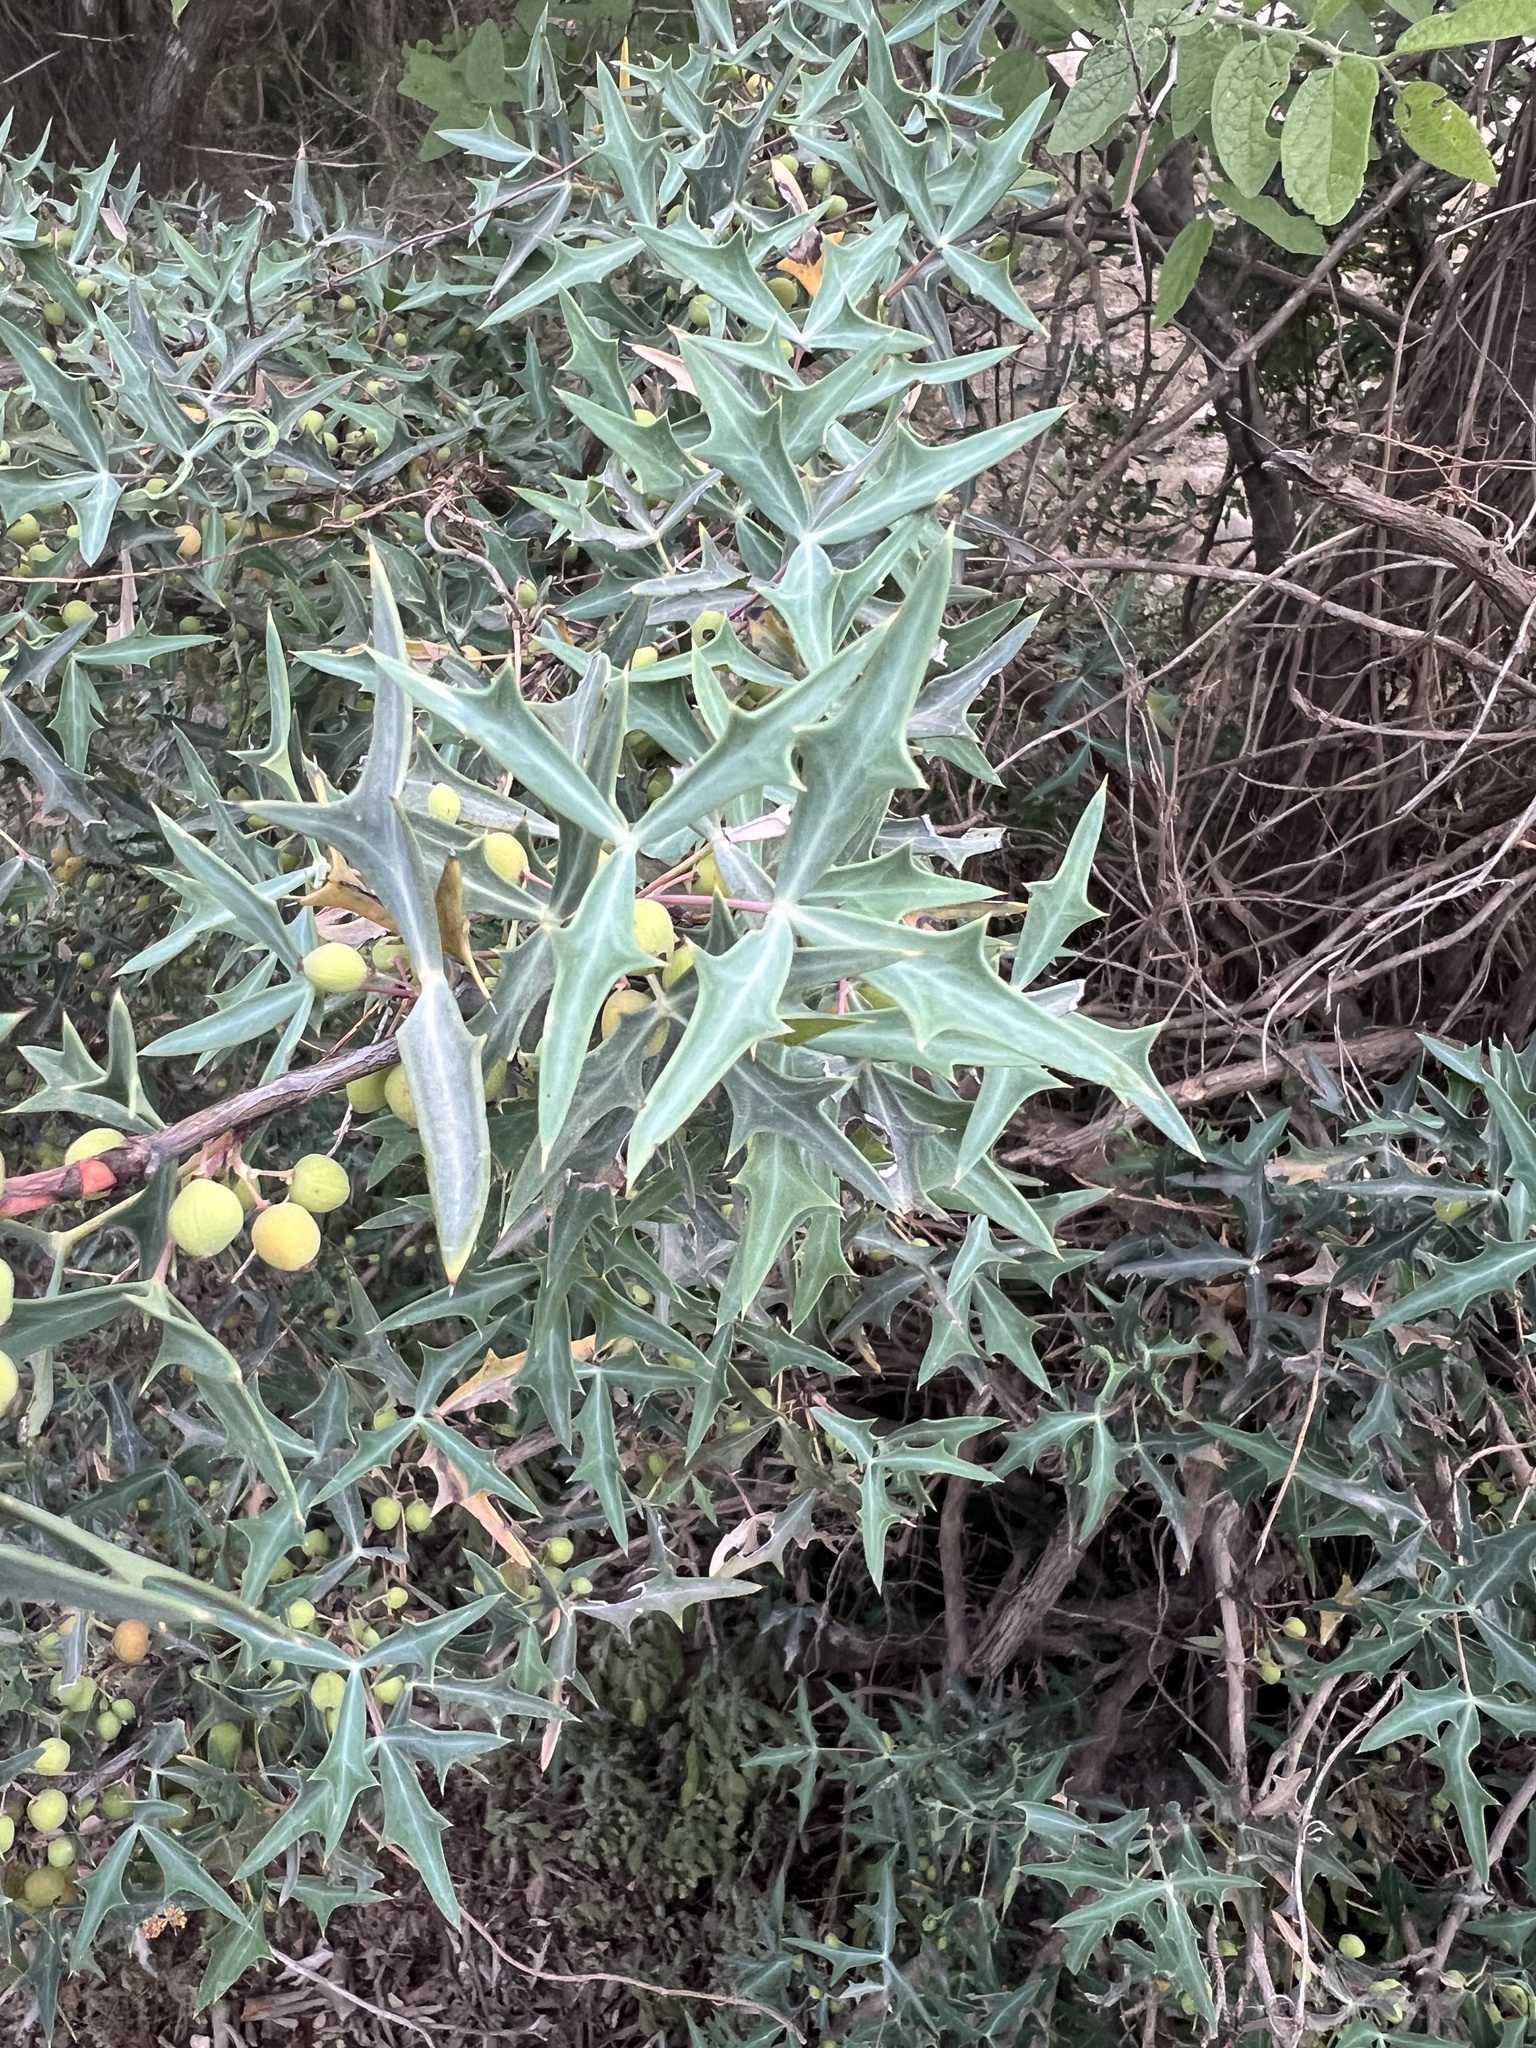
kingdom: Plantae
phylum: Tracheophyta
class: Magnoliopsida
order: Ranunculales
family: Berberidaceae
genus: Alloberberis
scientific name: Alloberberis trifoliolata
